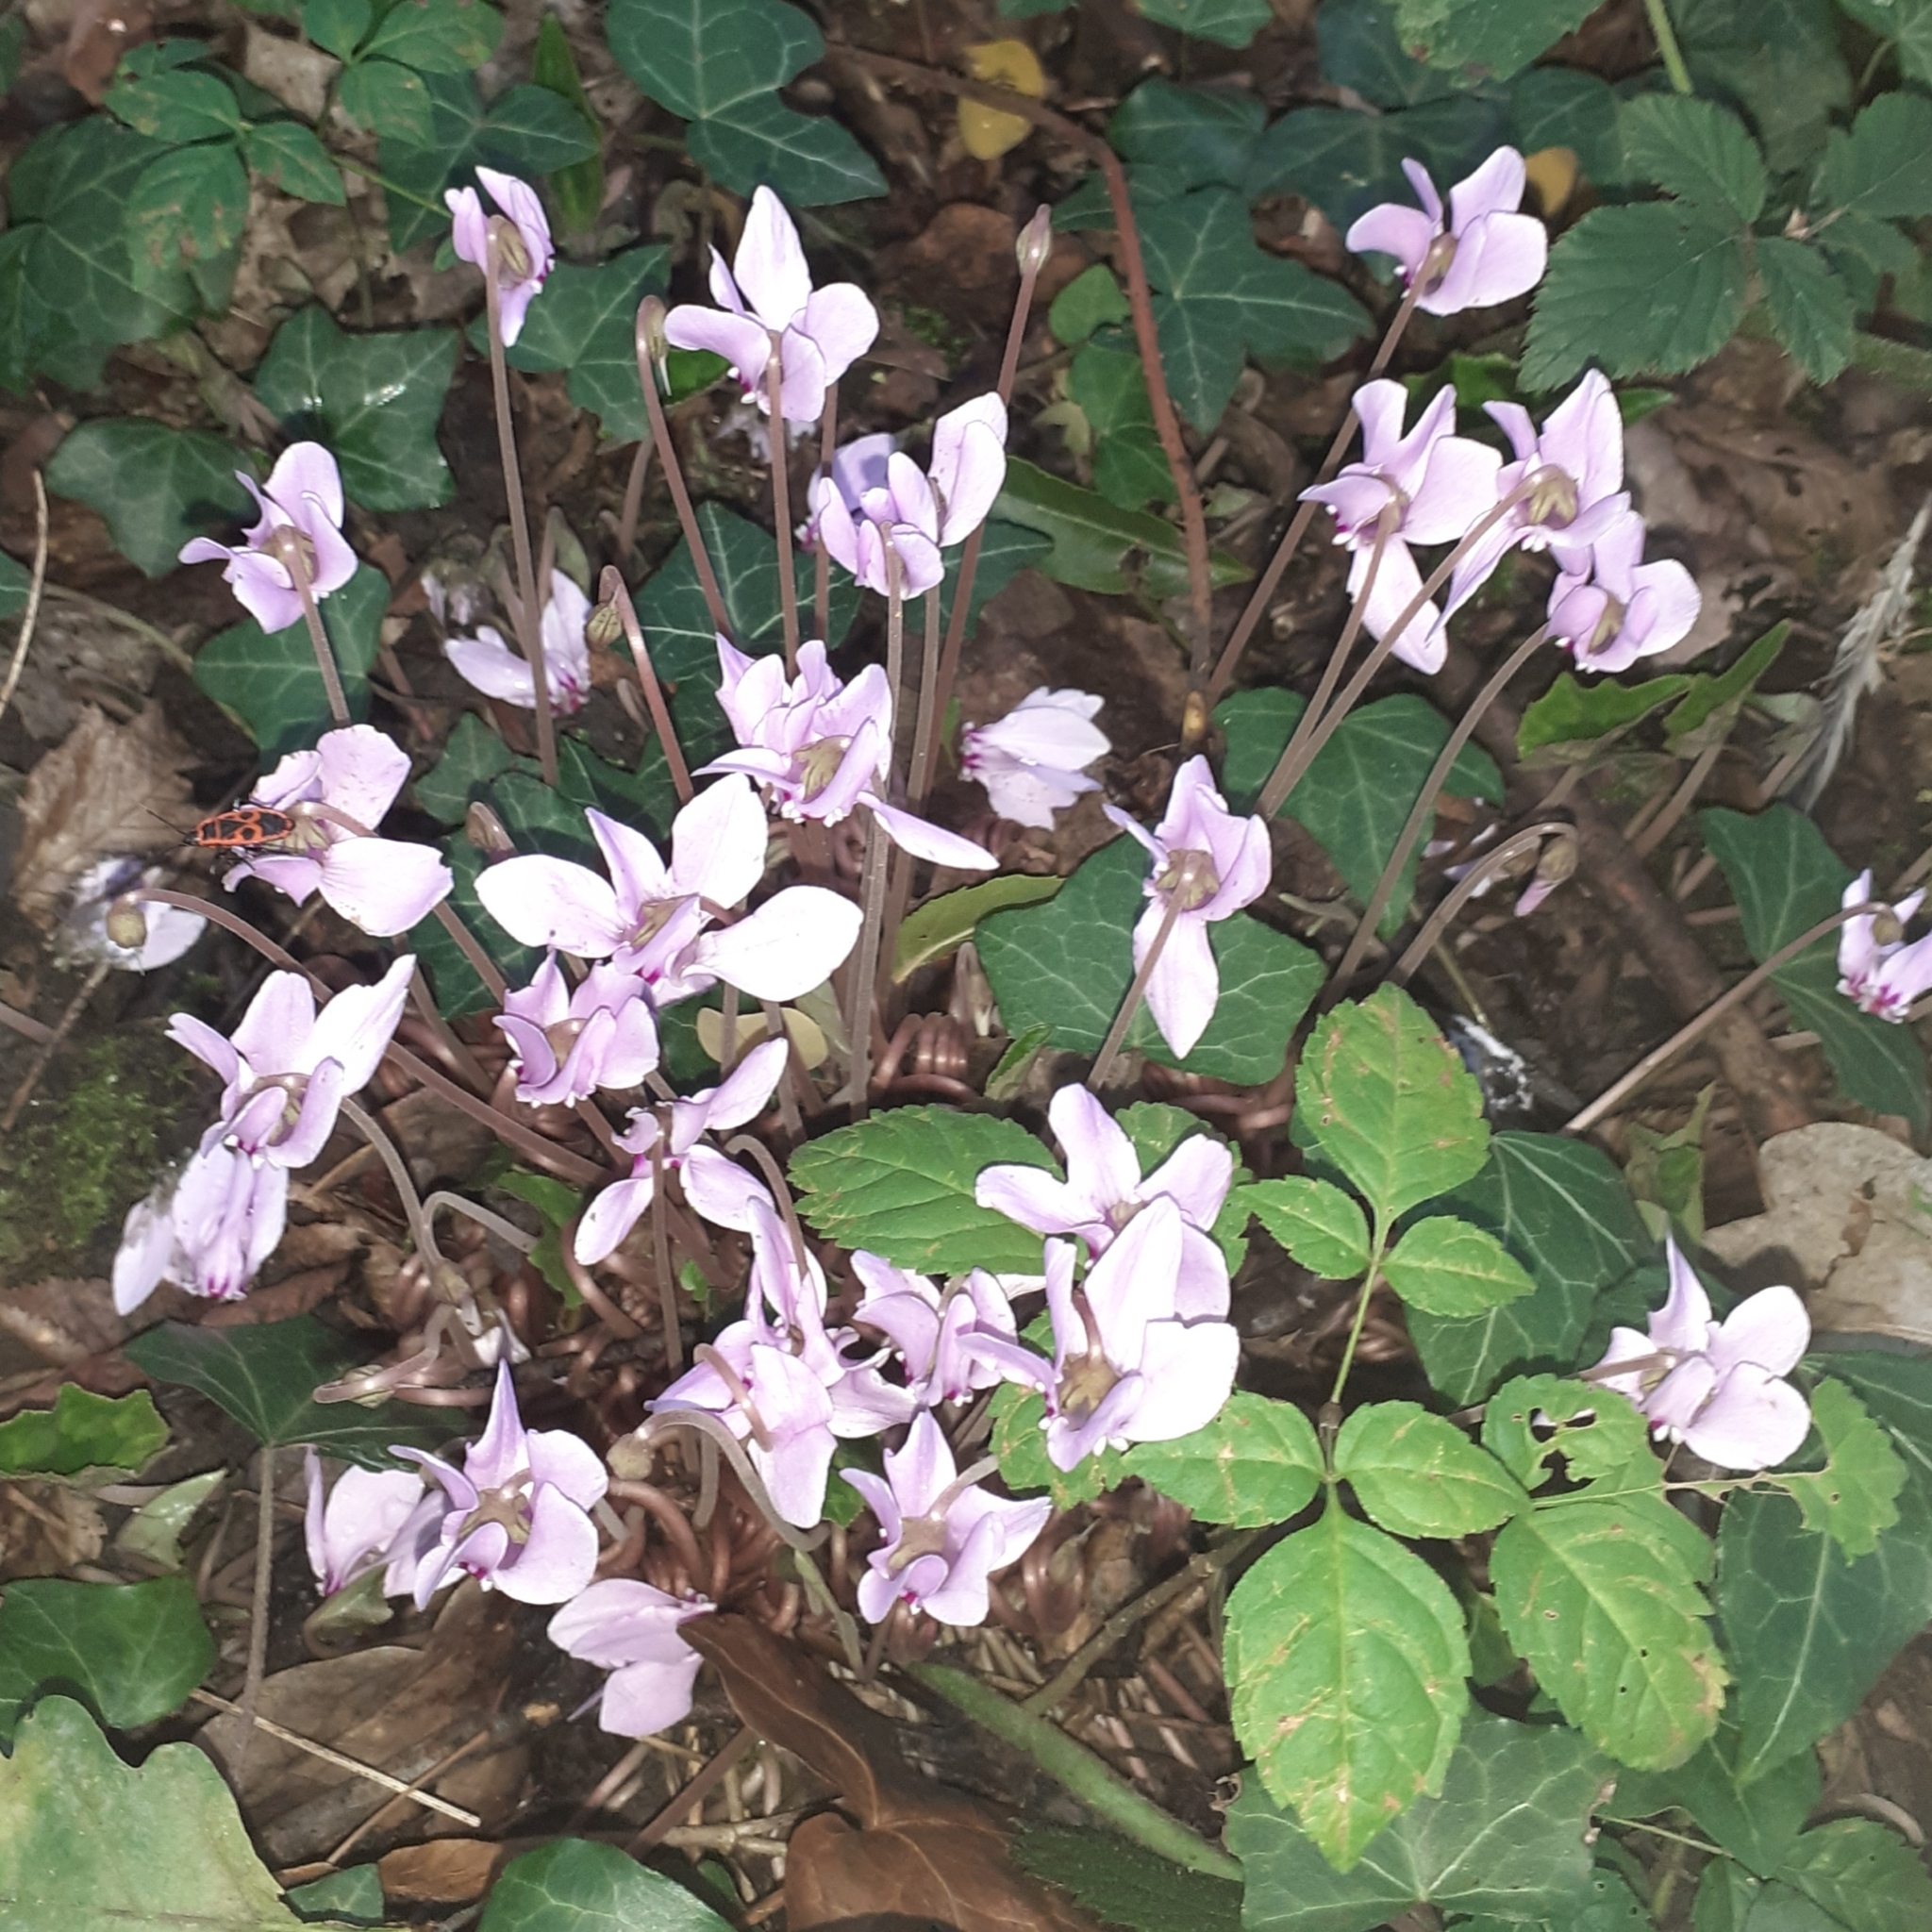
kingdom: Plantae
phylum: Tracheophyta
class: Magnoliopsida
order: Ericales
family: Primulaceae
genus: Cyclamen
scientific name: Cyclamen hederifolium
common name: Sowbread
